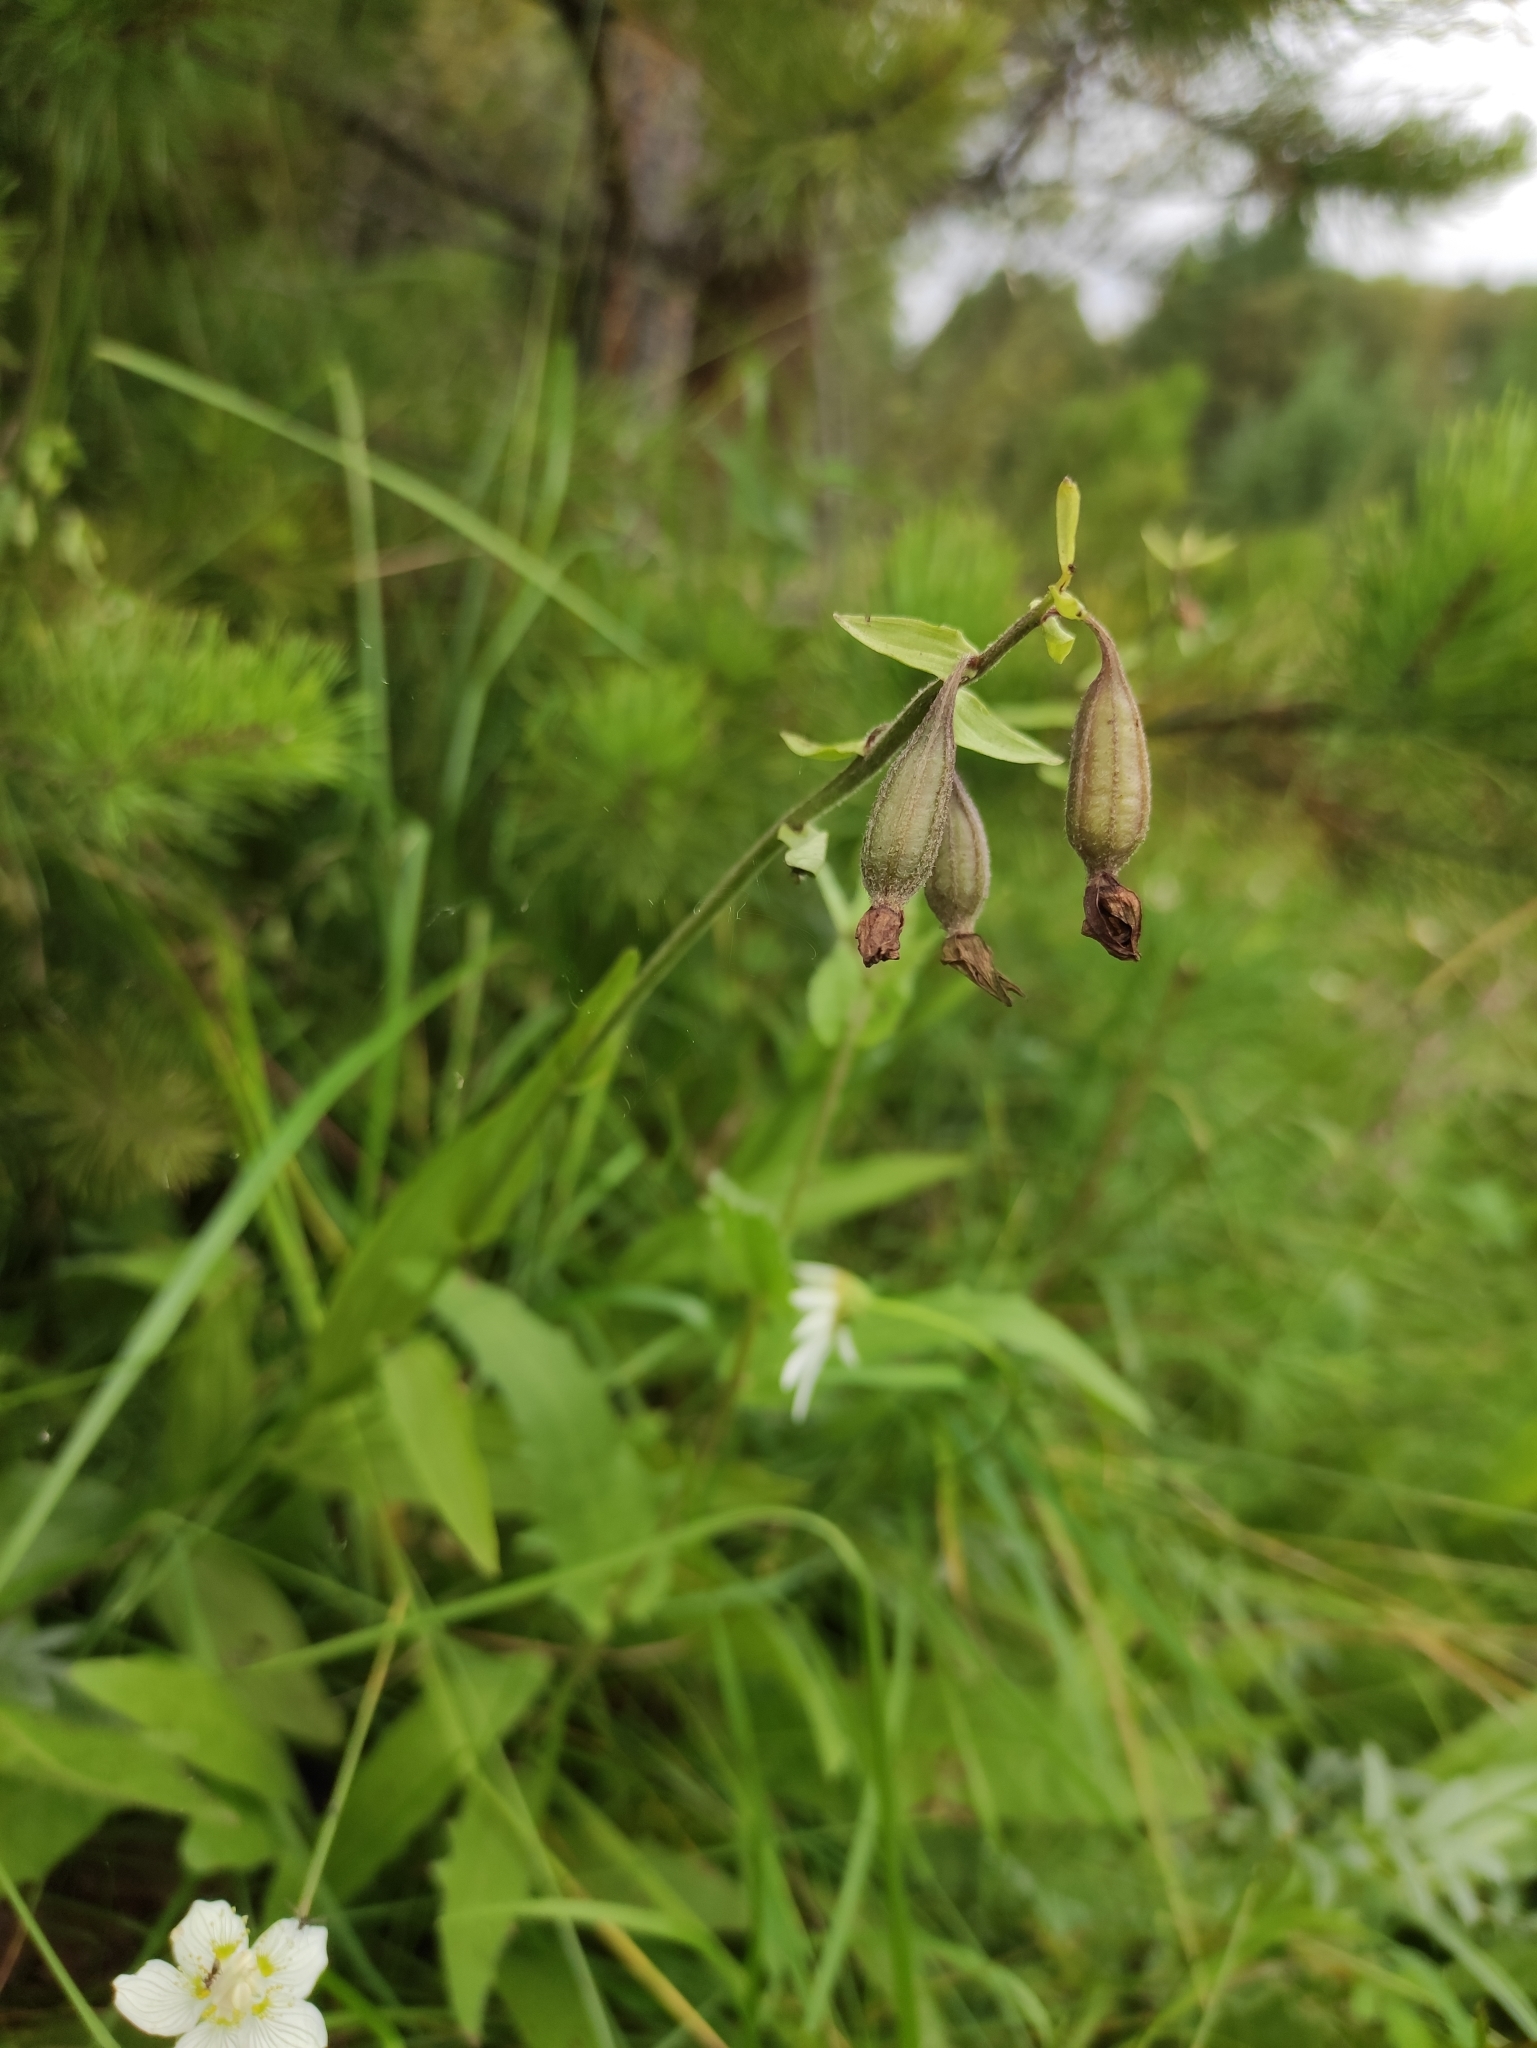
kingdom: Plantae
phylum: Tracheophyta
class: Liliopsida
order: Asparagales
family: Orchidaceae
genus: Epipactis
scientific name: Epipactis palustris
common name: Marsh helleborine
